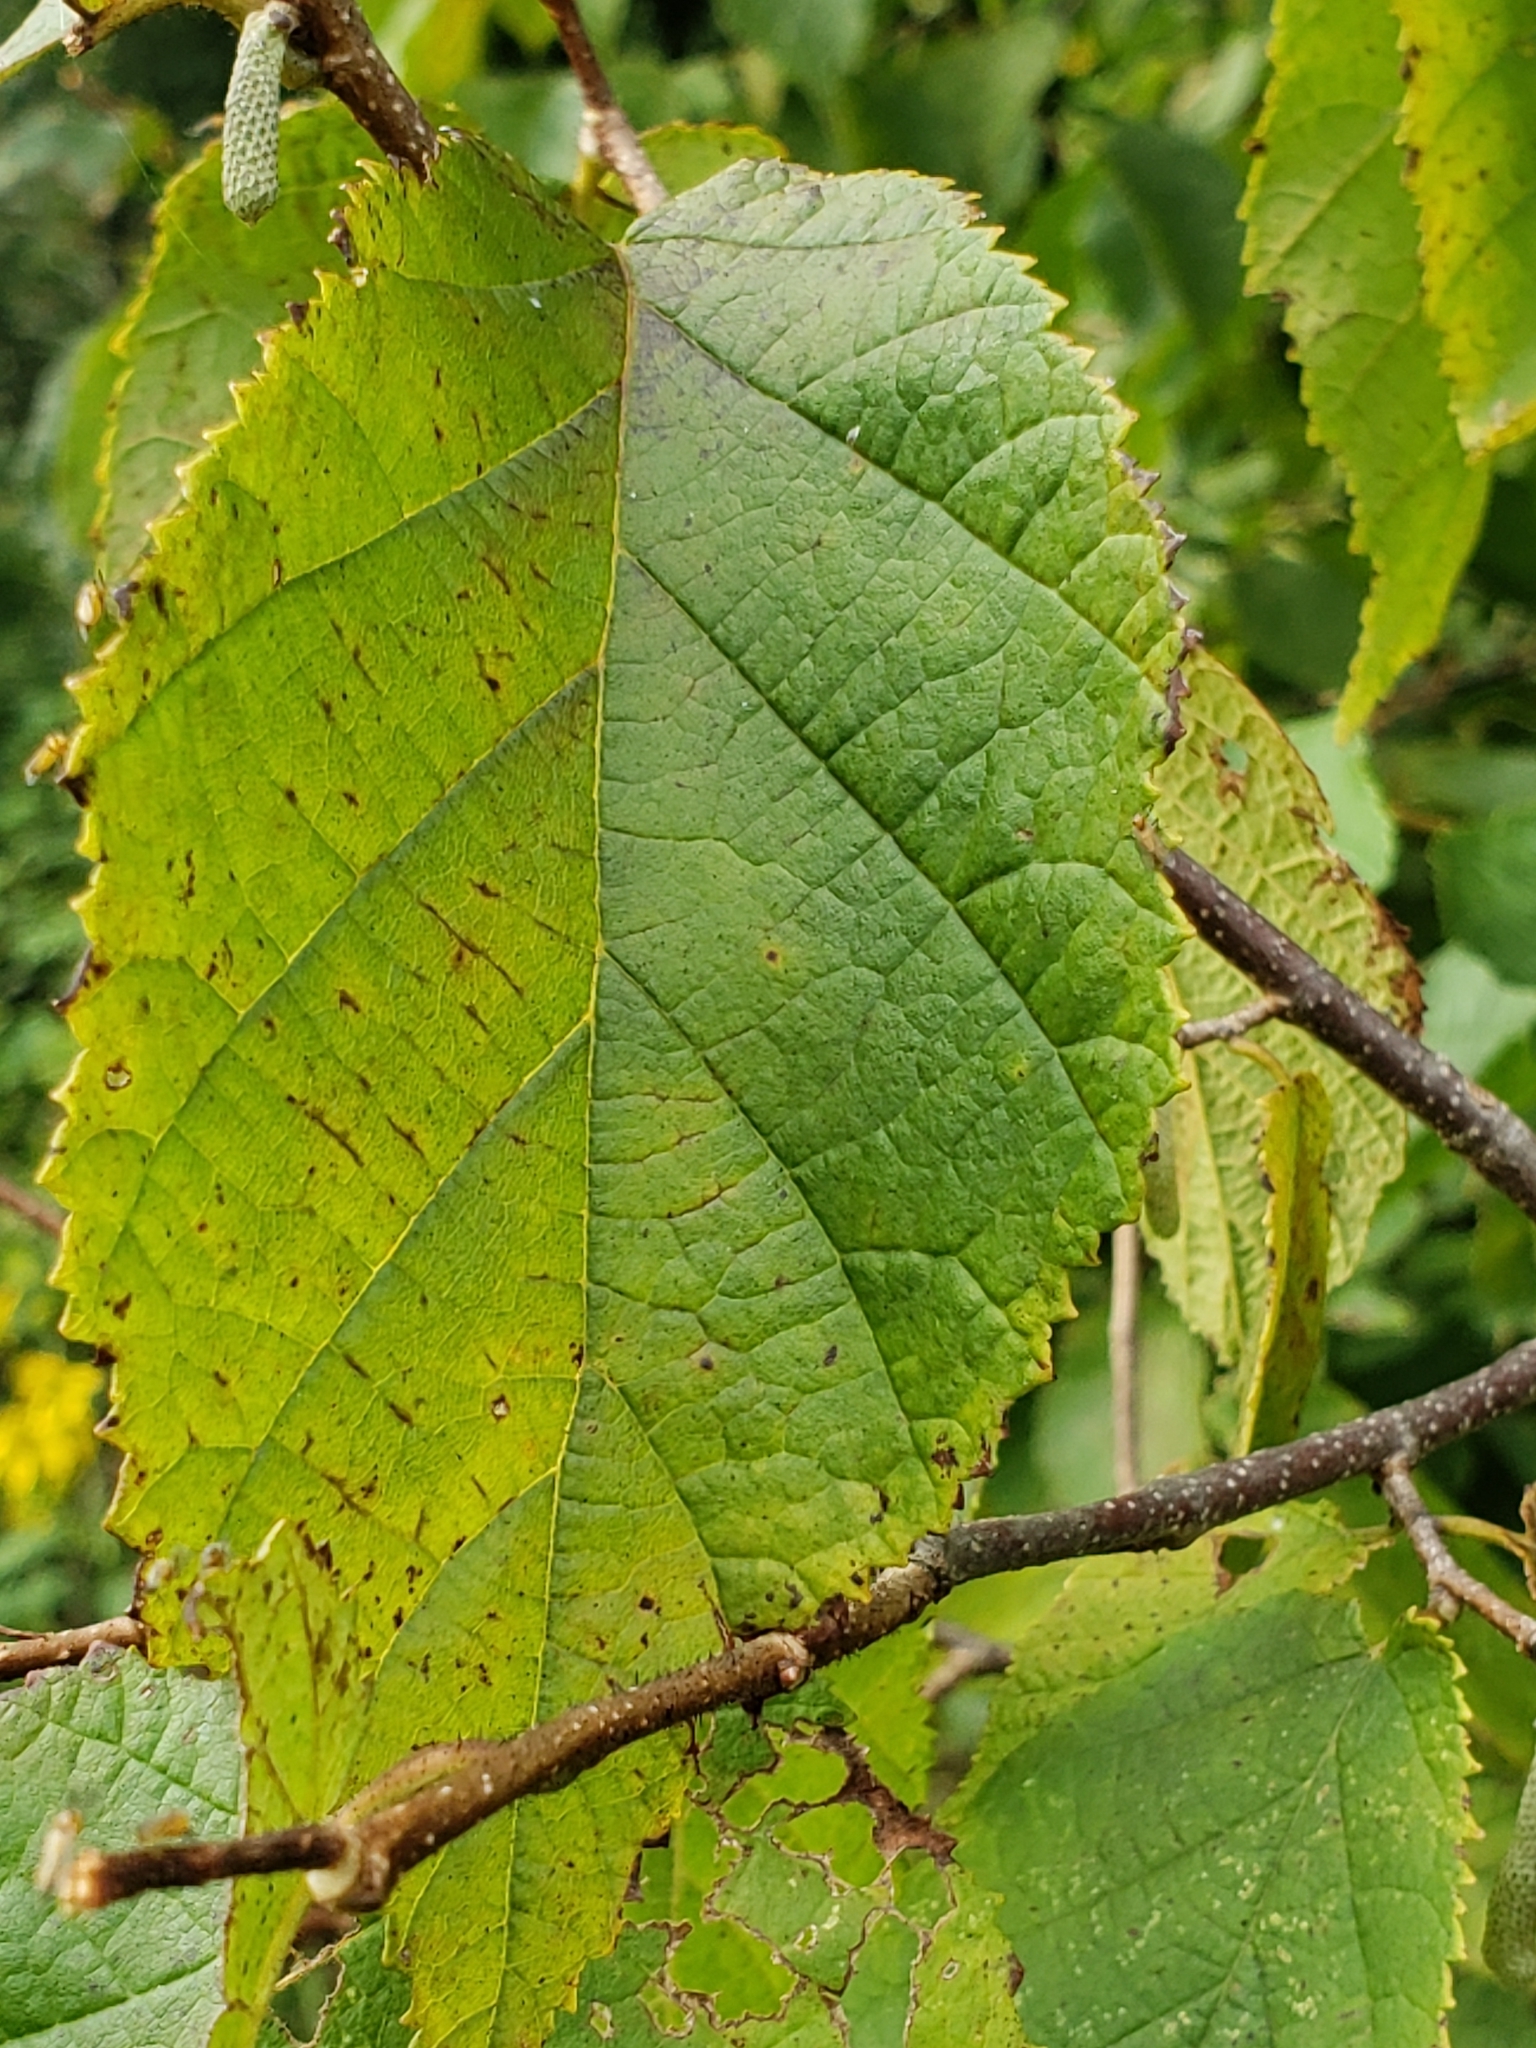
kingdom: Plantae
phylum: Tracheophyta
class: Magnoliopsida
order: Fagales
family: Betulaceae
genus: Corylus
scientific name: Corylus americana
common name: American hazel
